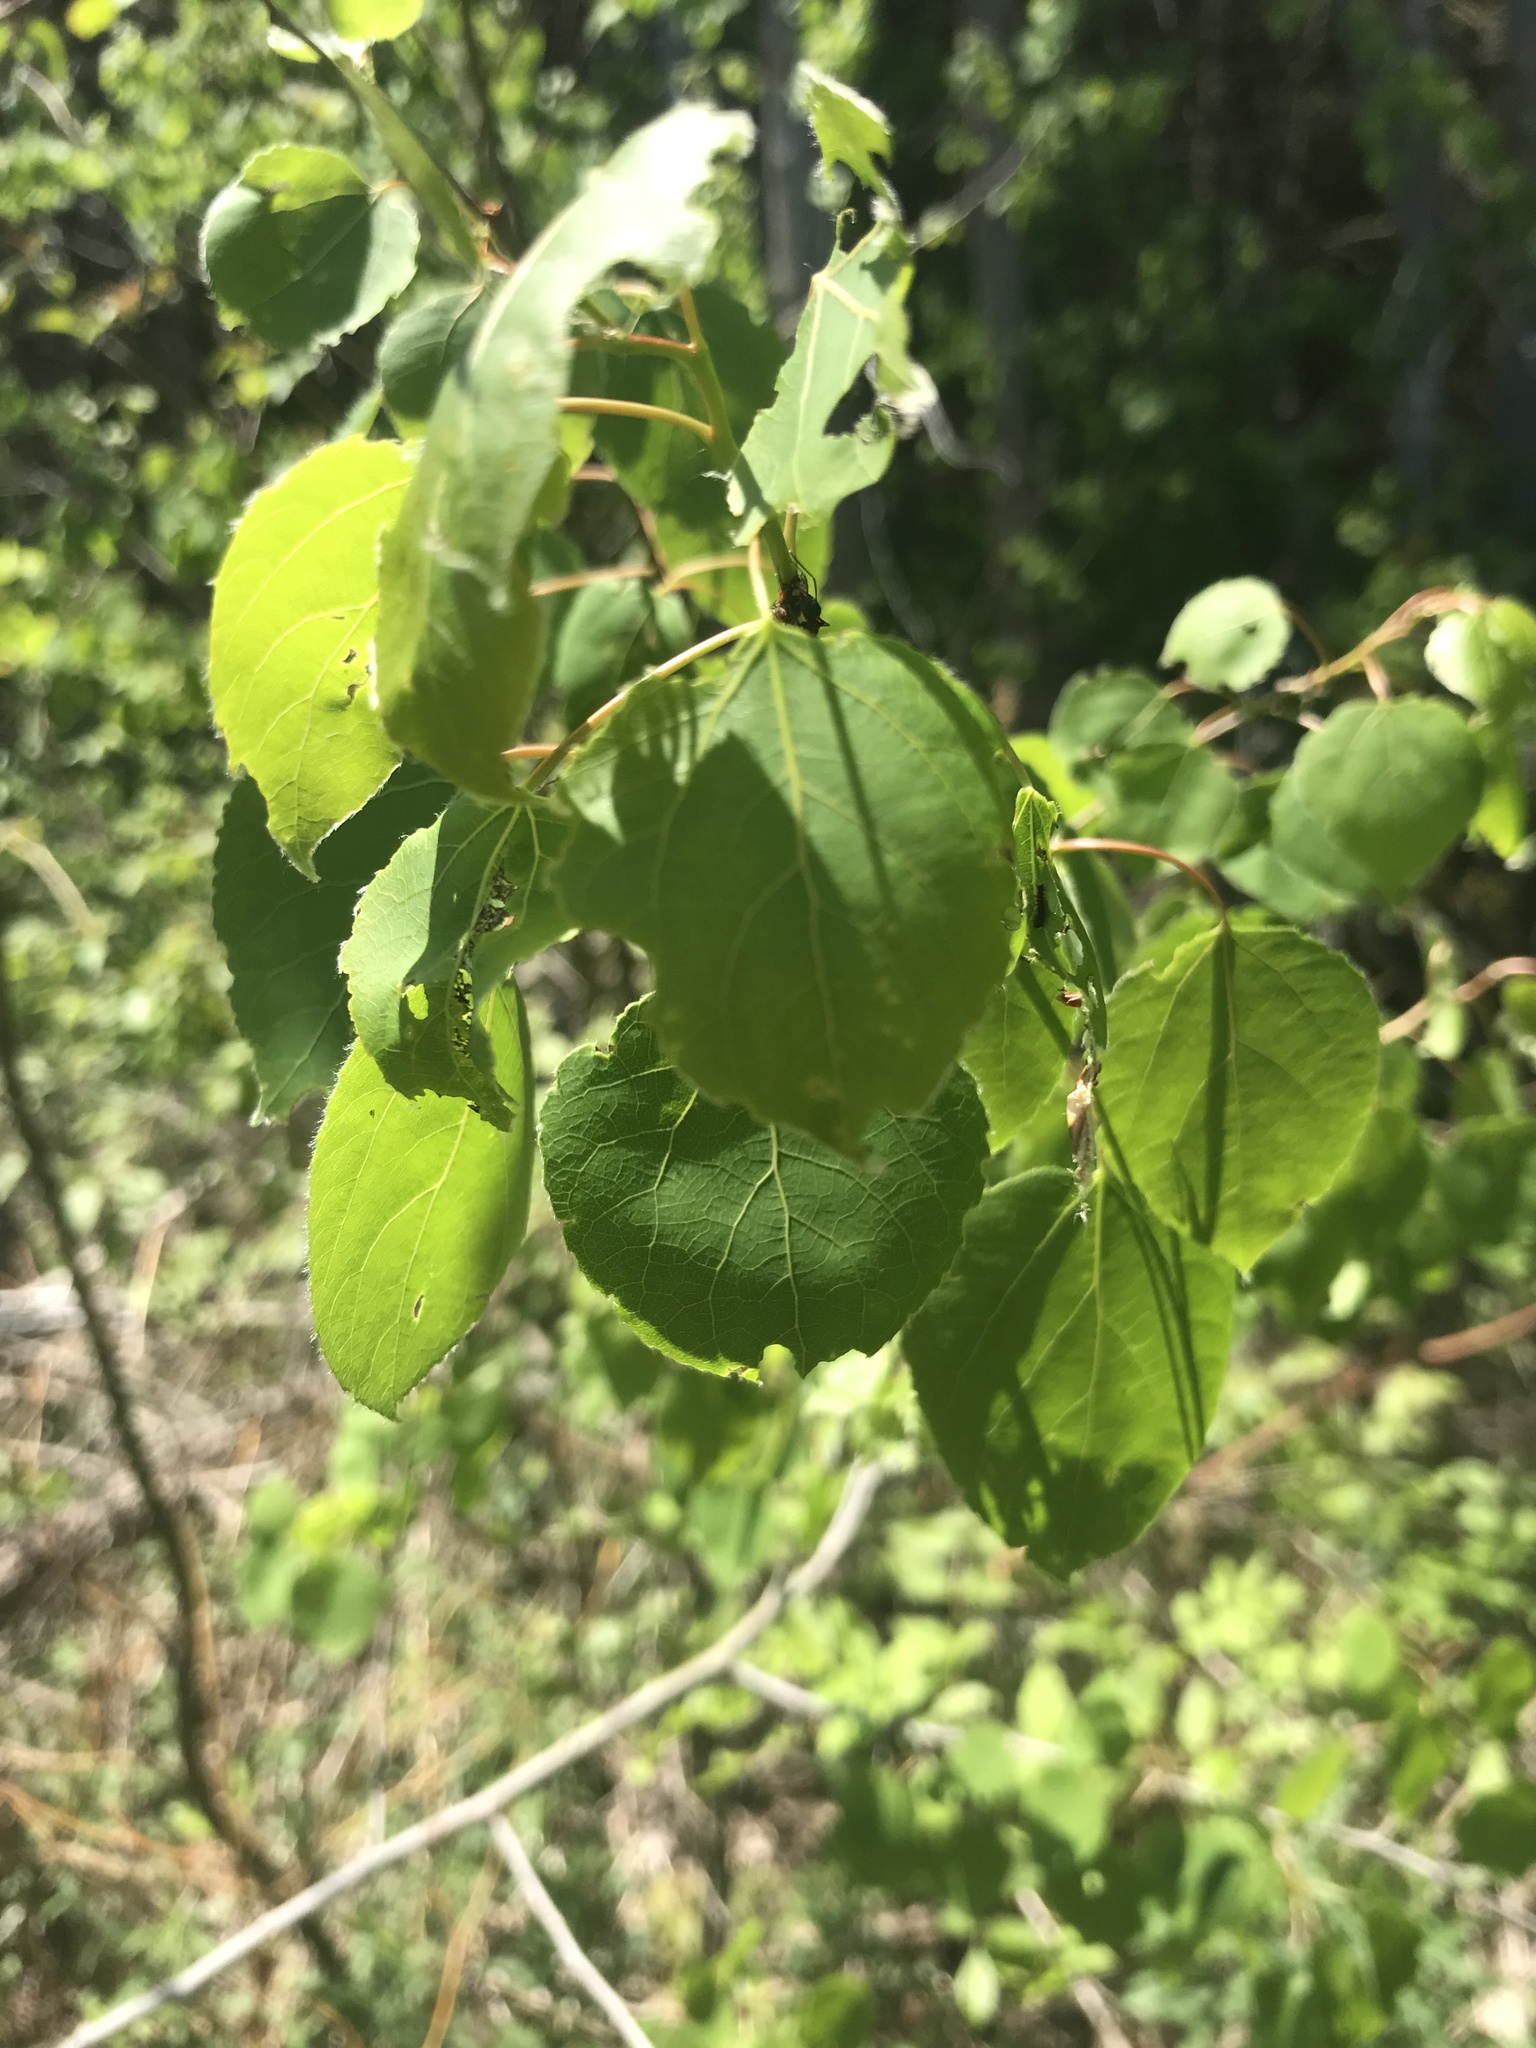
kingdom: Plantae
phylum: Tracheophyta
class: Magnoliopsida
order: Malpighiales
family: Salicaceae
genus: Populus
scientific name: Populus tremuloides
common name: Quaking aspen
